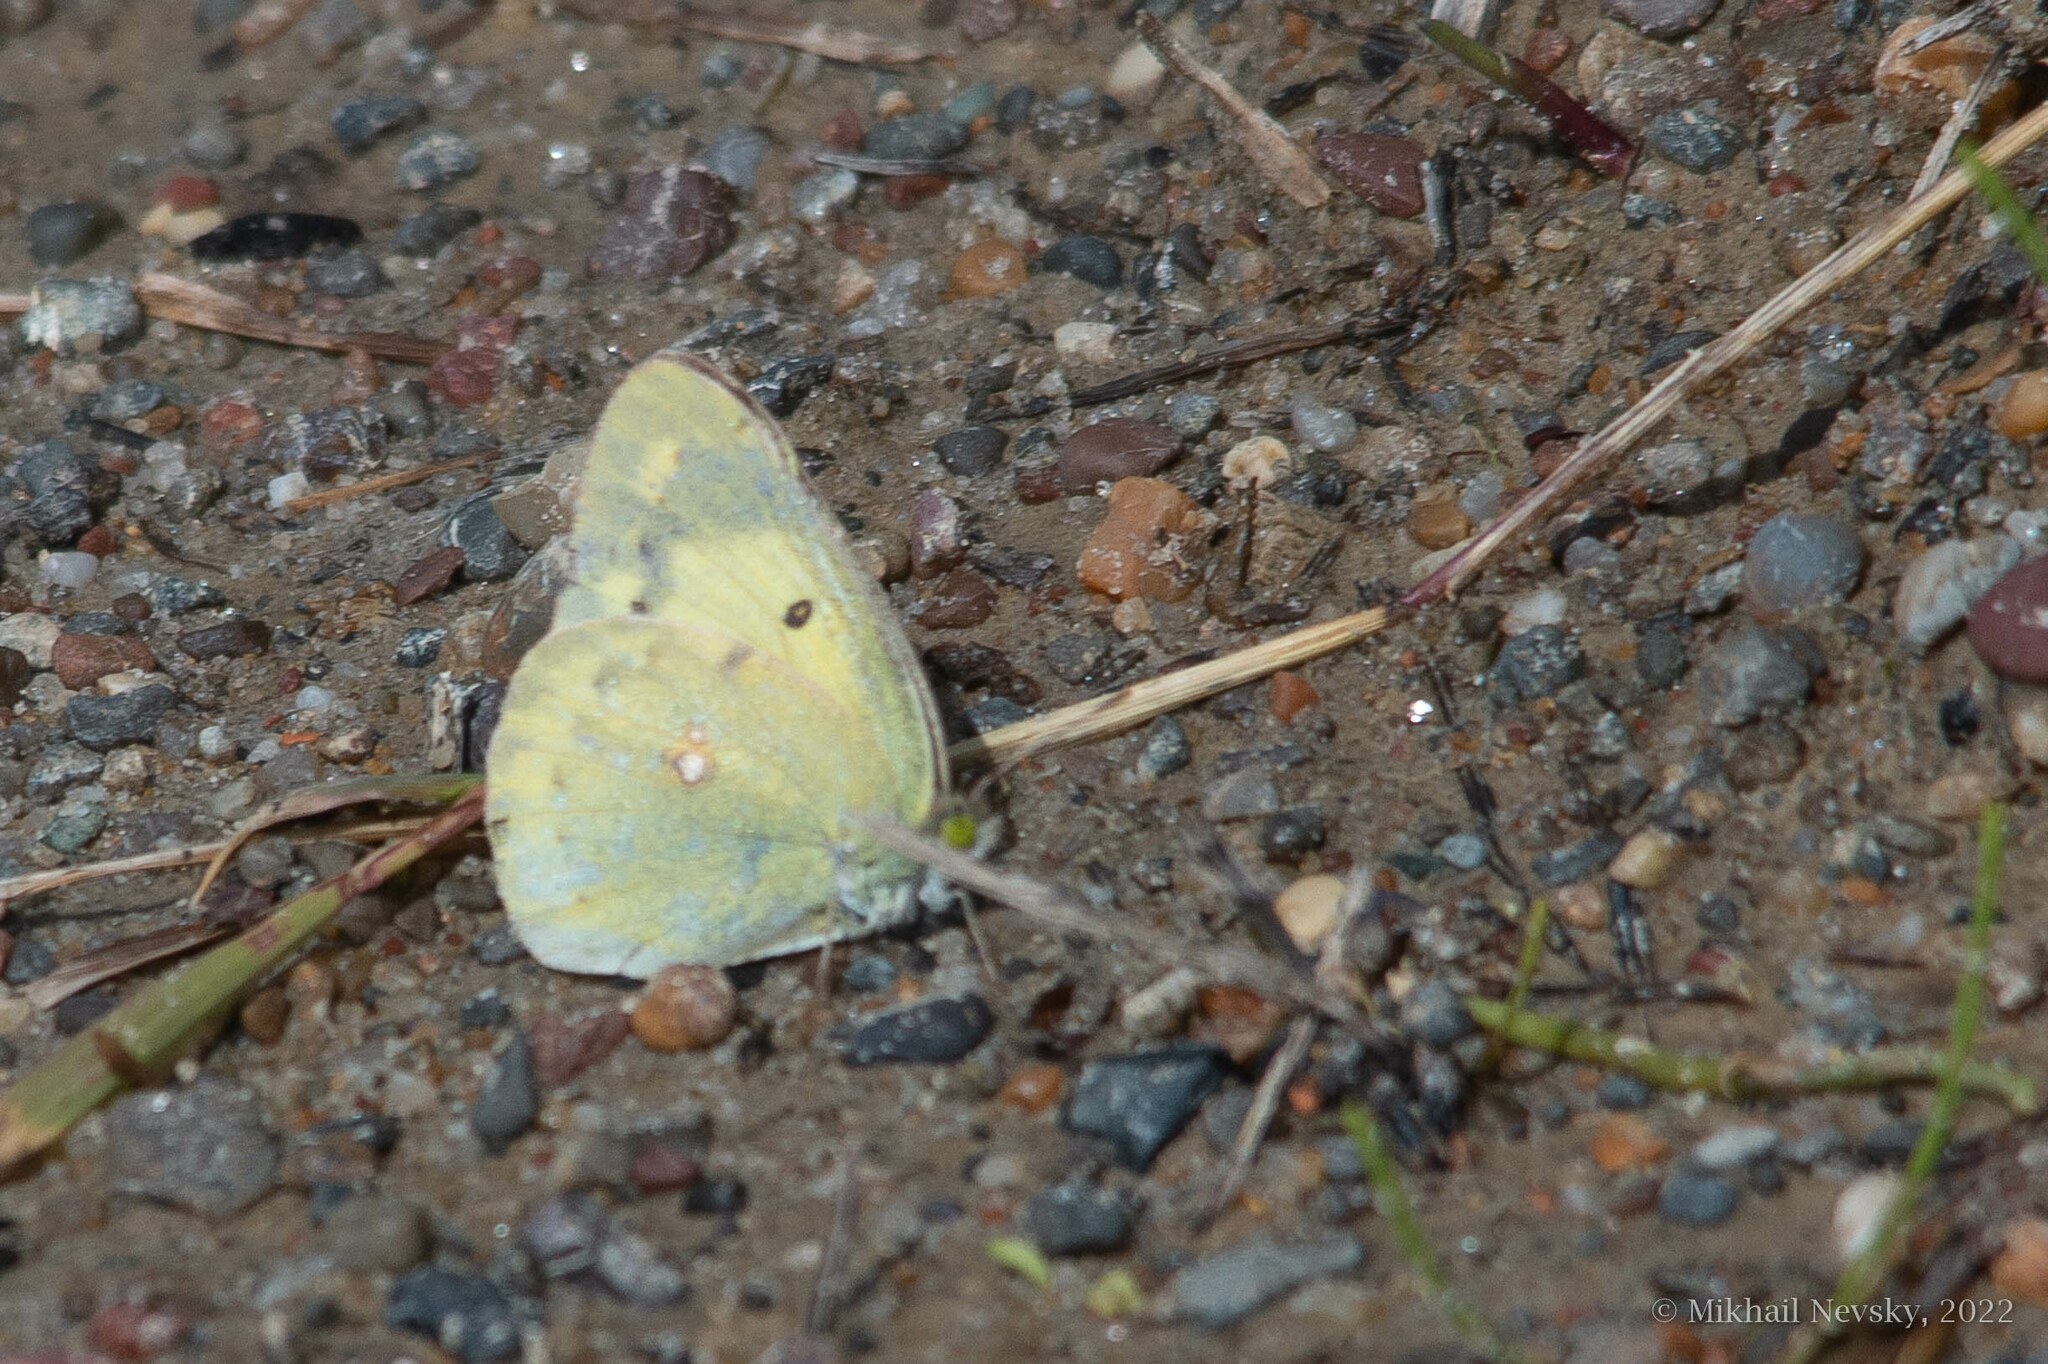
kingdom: Animalia
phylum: Arthropoda
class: Insecta
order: Lepidoptera
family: Pieridae
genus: Colias
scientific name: Colias poliographus
